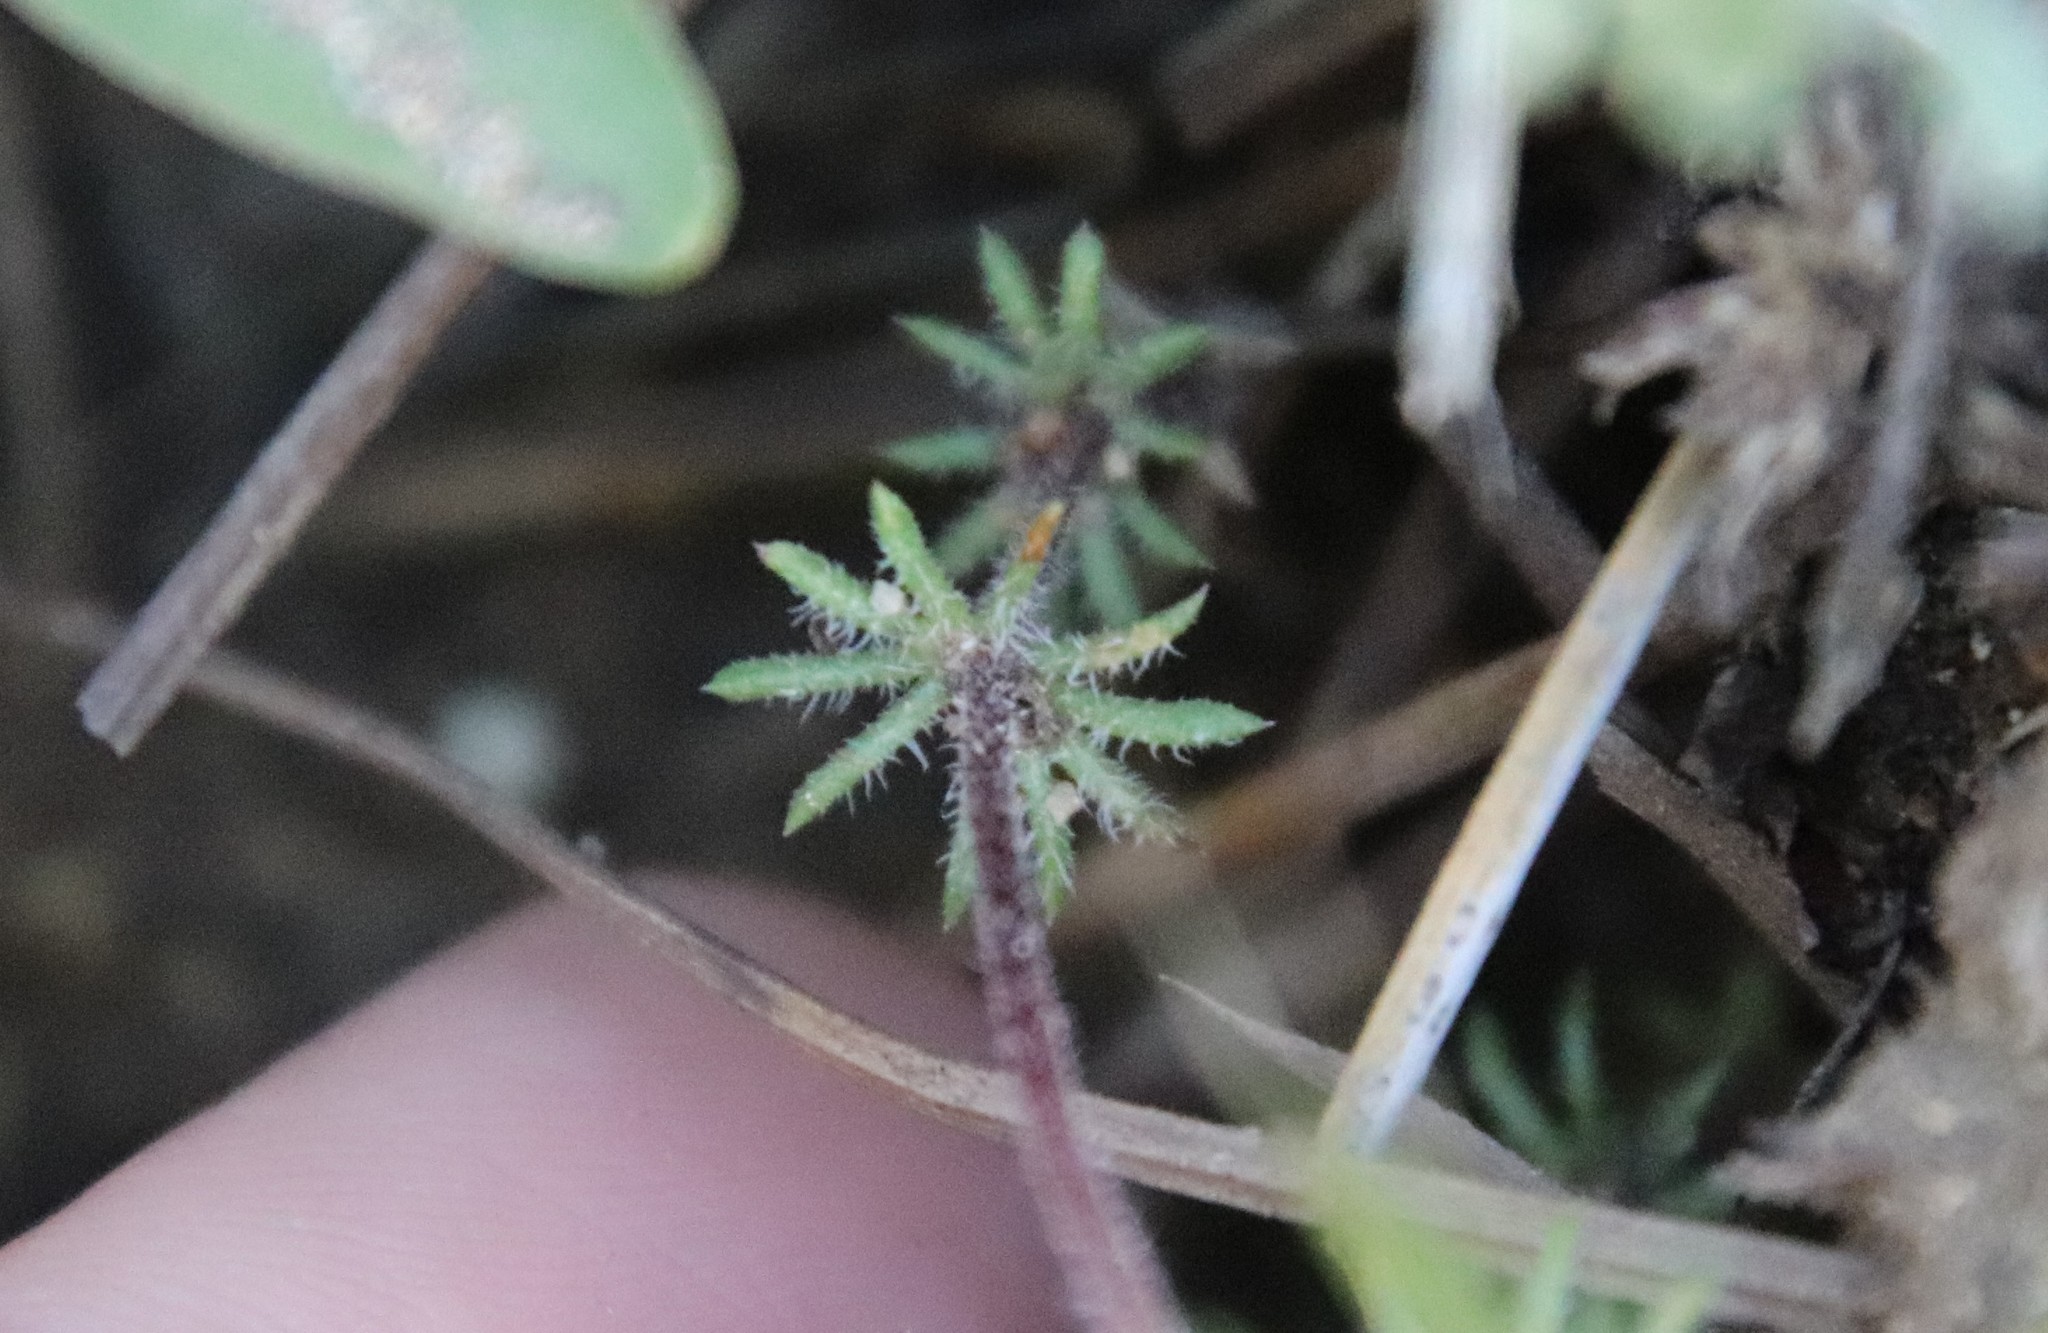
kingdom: Plantae
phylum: Tracheophyta
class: Magnoliopsida
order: Ericales
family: Polemoniaceae
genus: Leptosiphon
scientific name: Leptosiphon ciliatus
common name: Whiskerbrush
